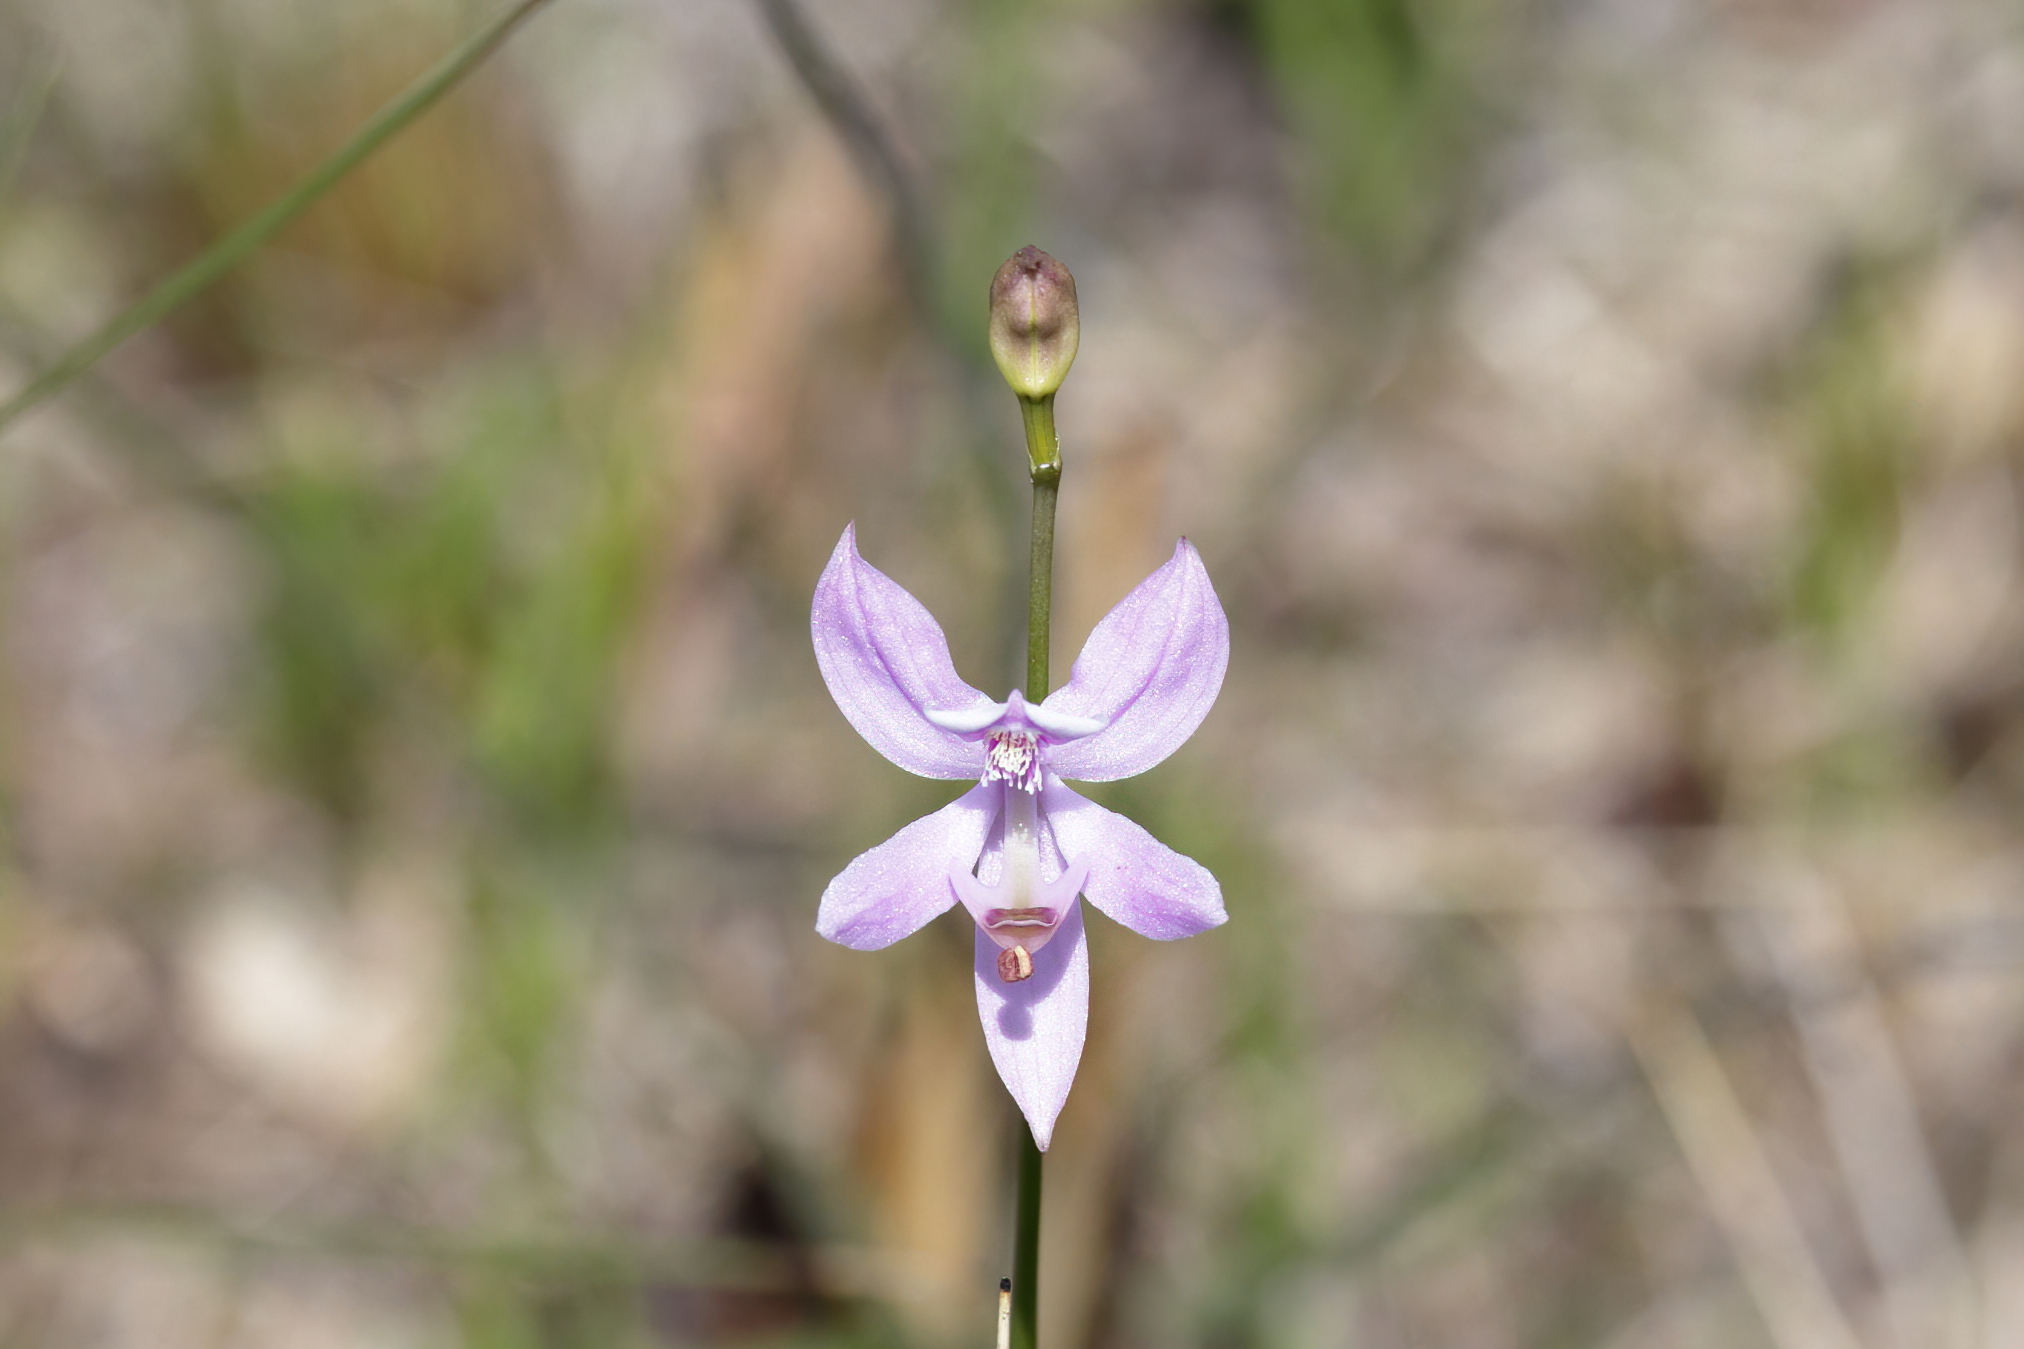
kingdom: Plantae
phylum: Tracheophyta
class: Liliopsida
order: Asparagales
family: Orchidaceae
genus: Calopogon
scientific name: Calopogon pallidus
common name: Pale grasspink
